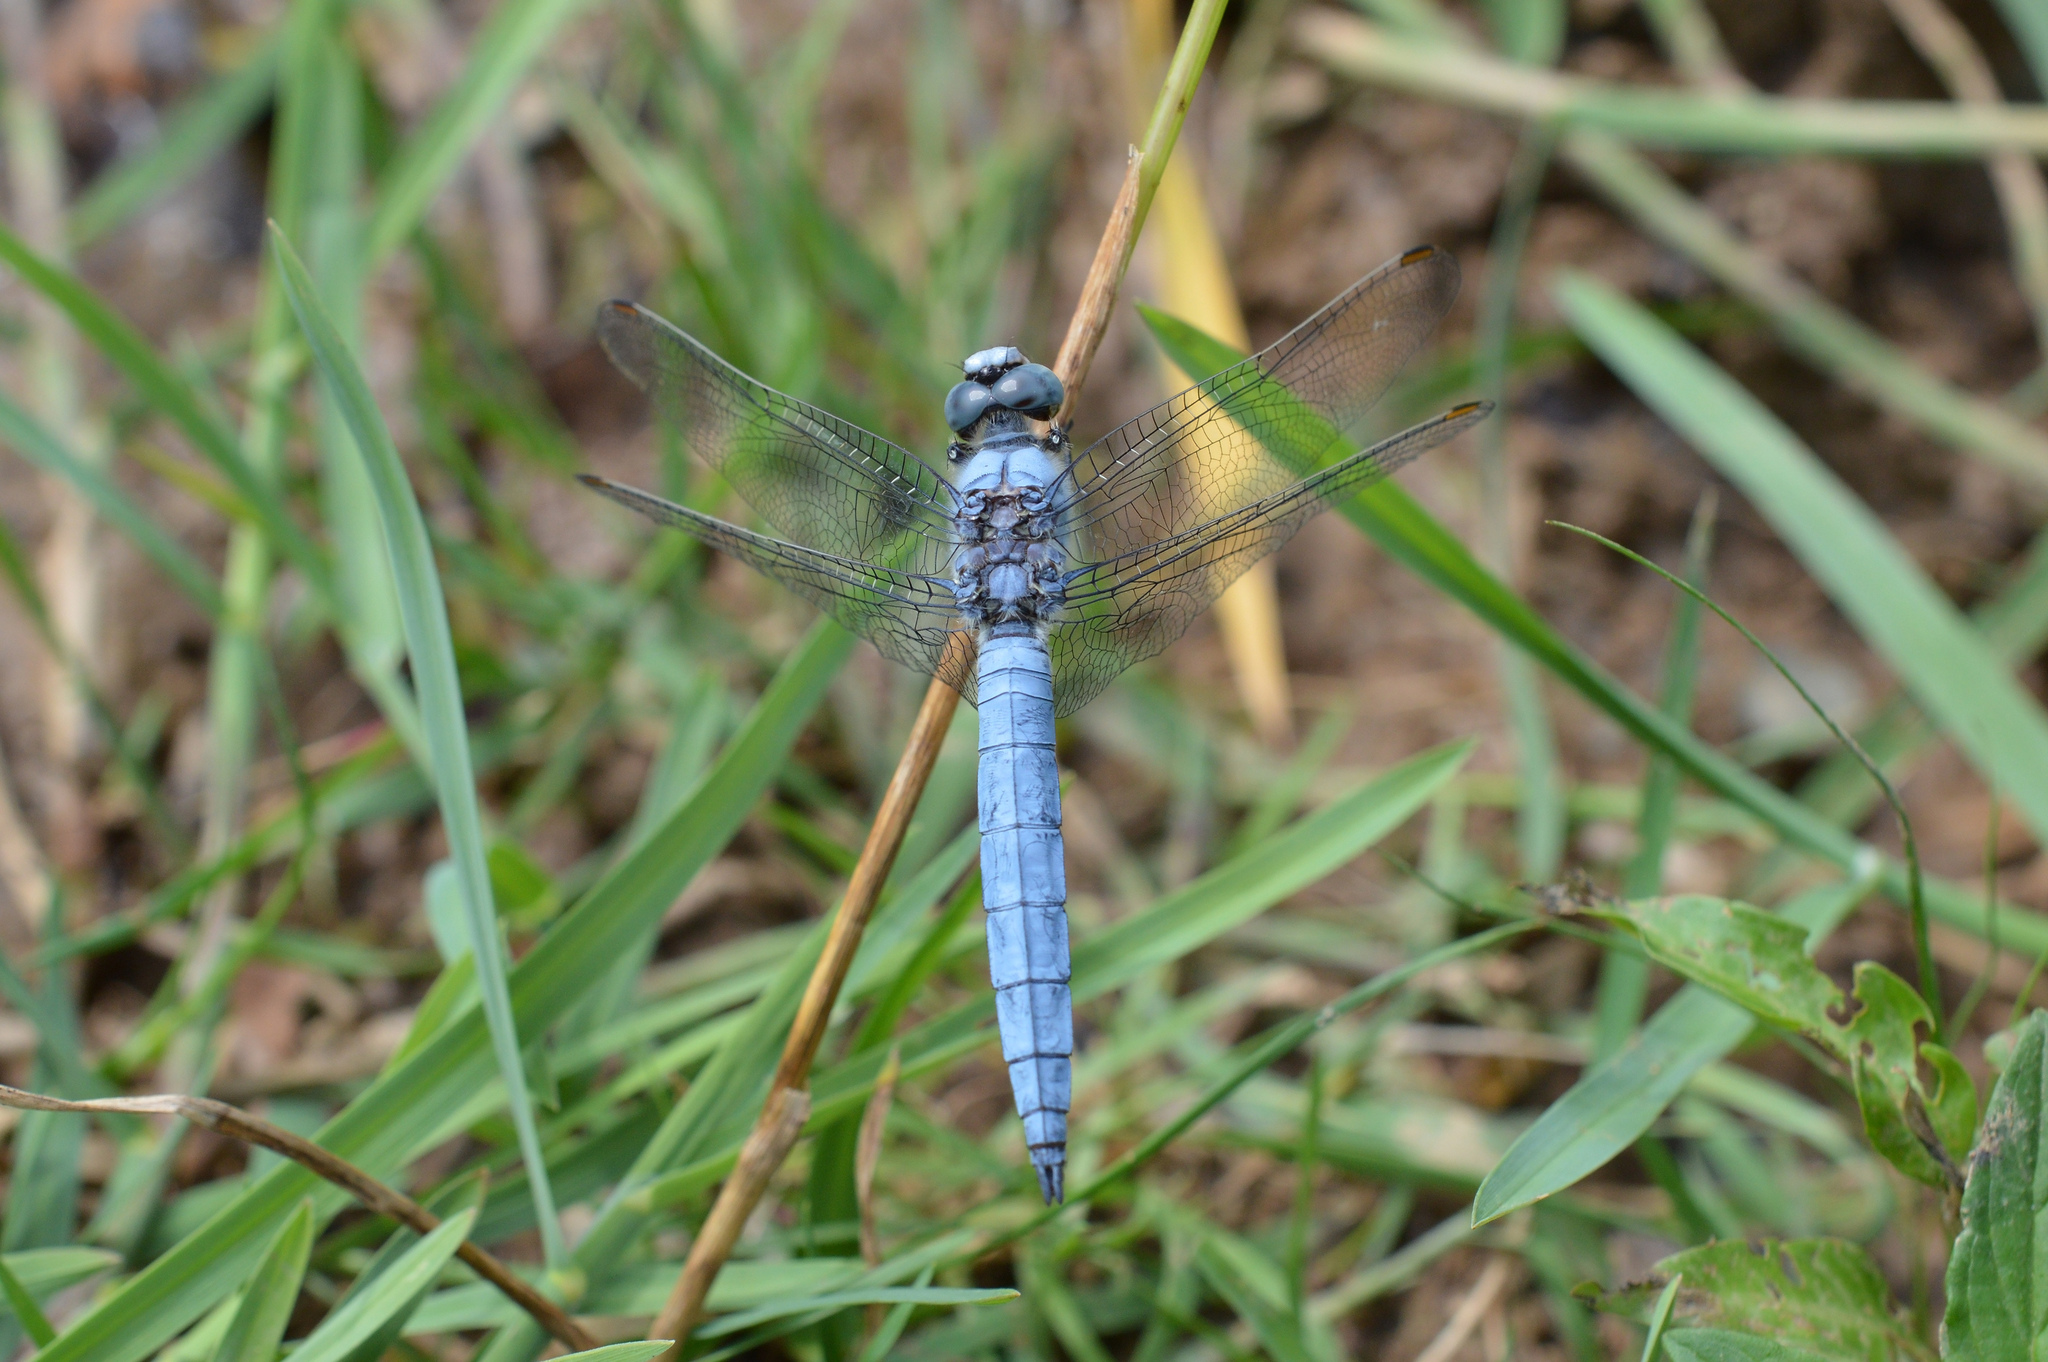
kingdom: Animalia
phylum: Arthropoda
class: Insecta
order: Odonata
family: Libellulidae
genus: Orthetrum
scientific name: Orthetrum brunneum
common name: Southern skimmer
